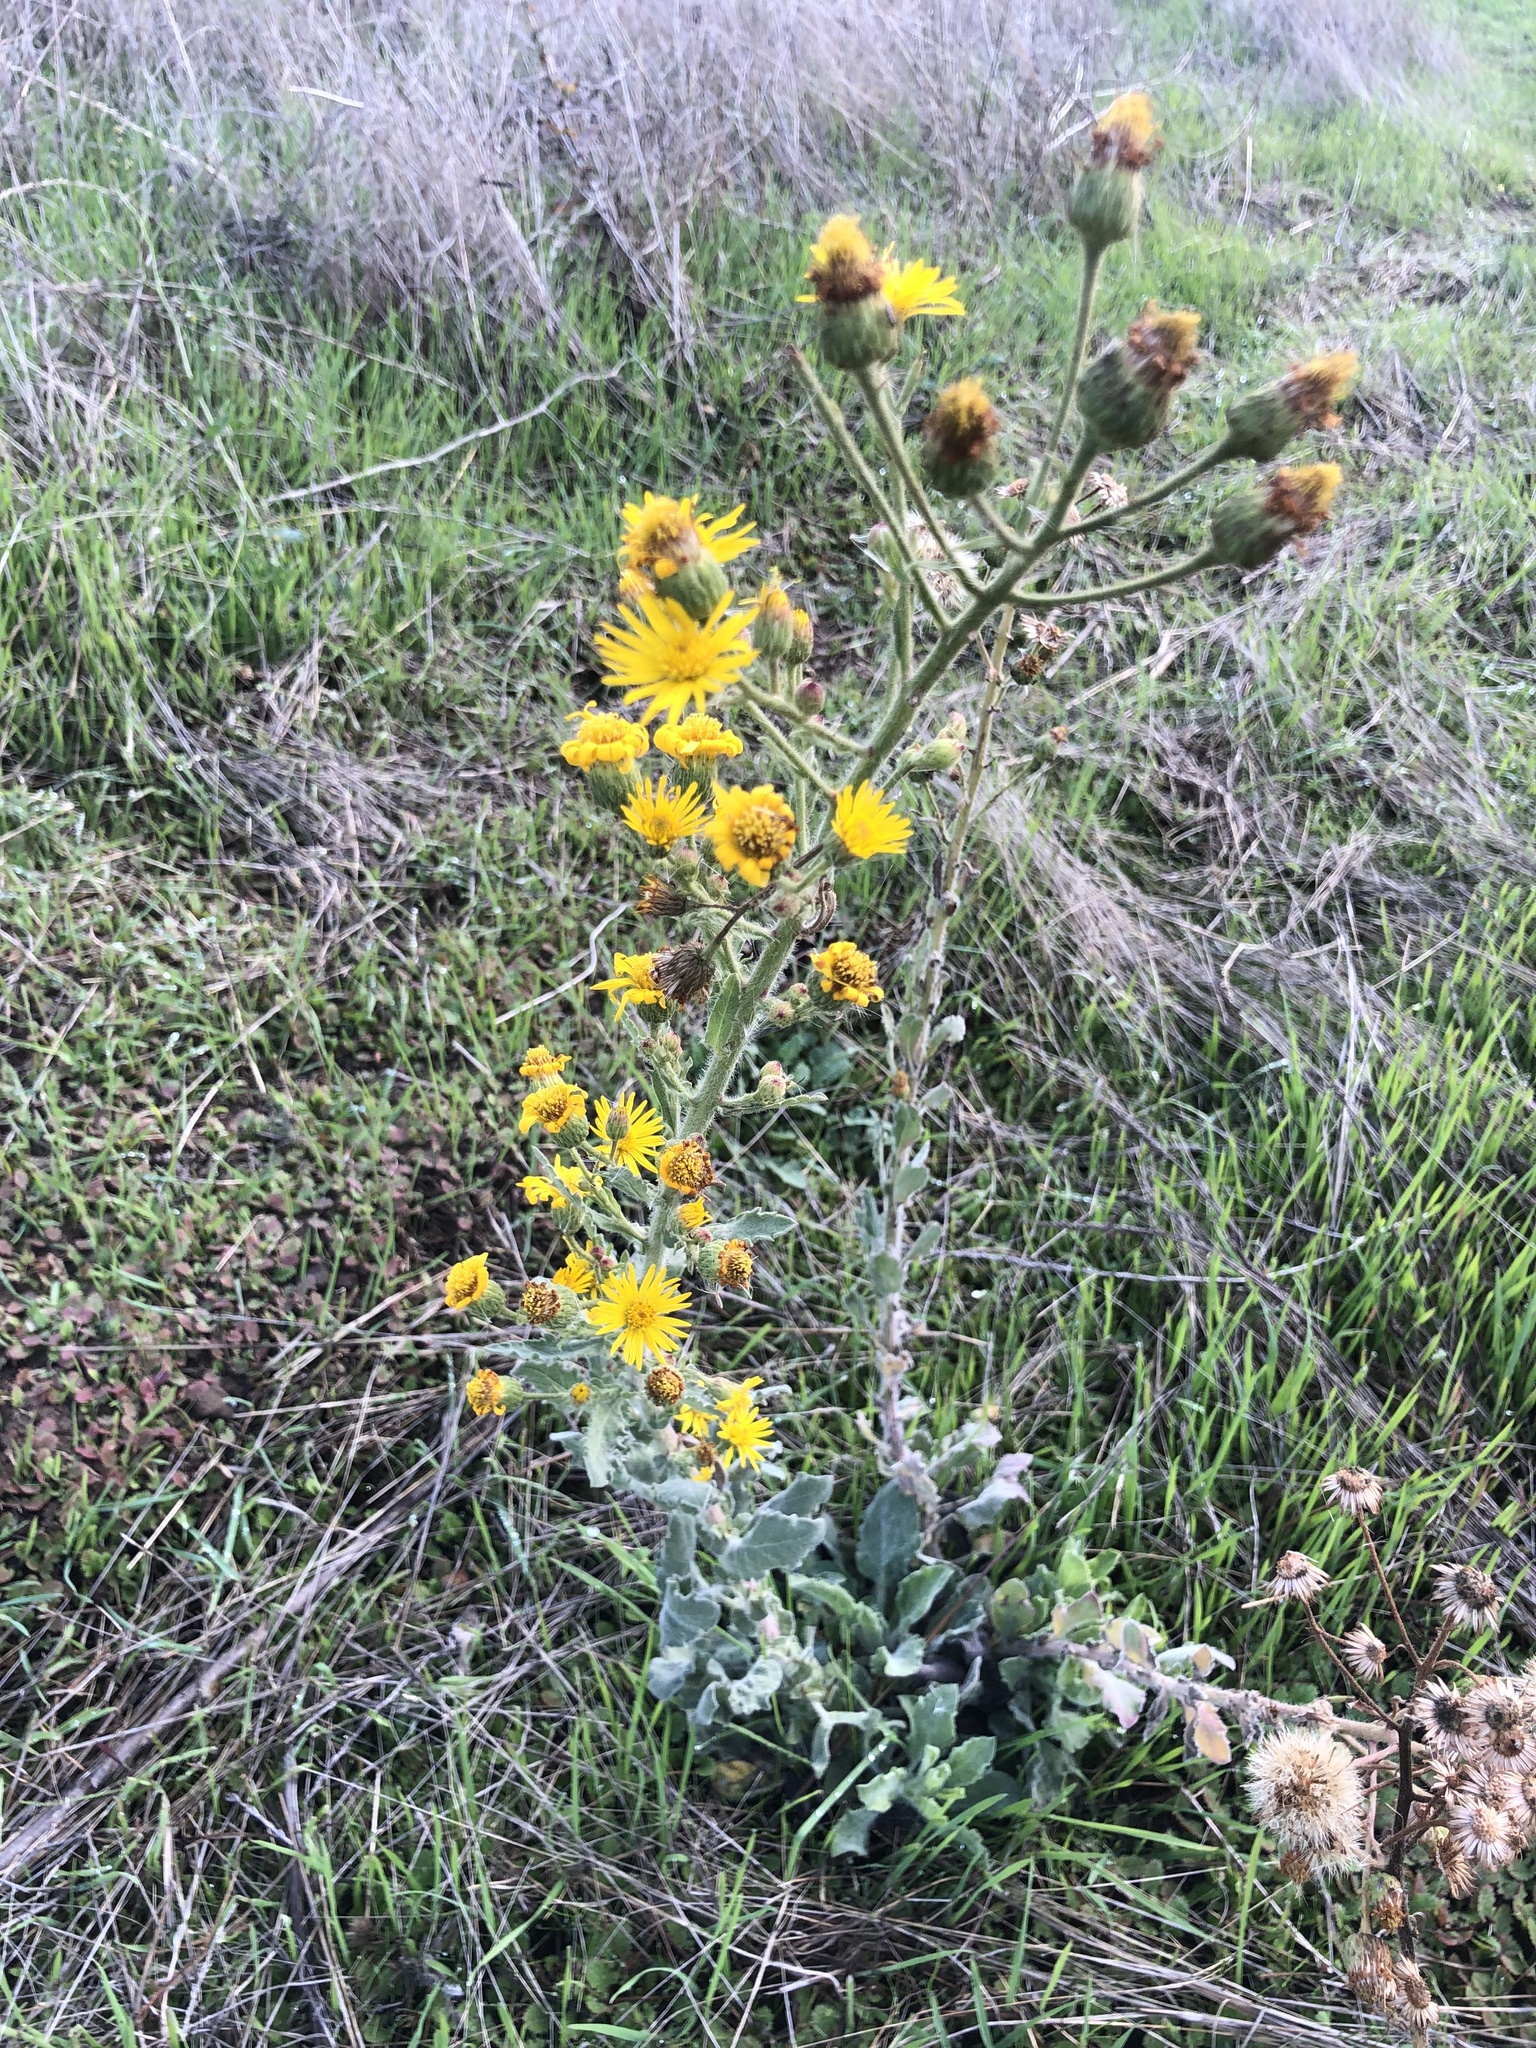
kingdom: Plantae
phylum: Tracheophyta
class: Magnoliopsida
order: Asterales
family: Asteraceae
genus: Heterotheca
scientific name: Heterotheca grandiflora
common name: Telegraphweed
